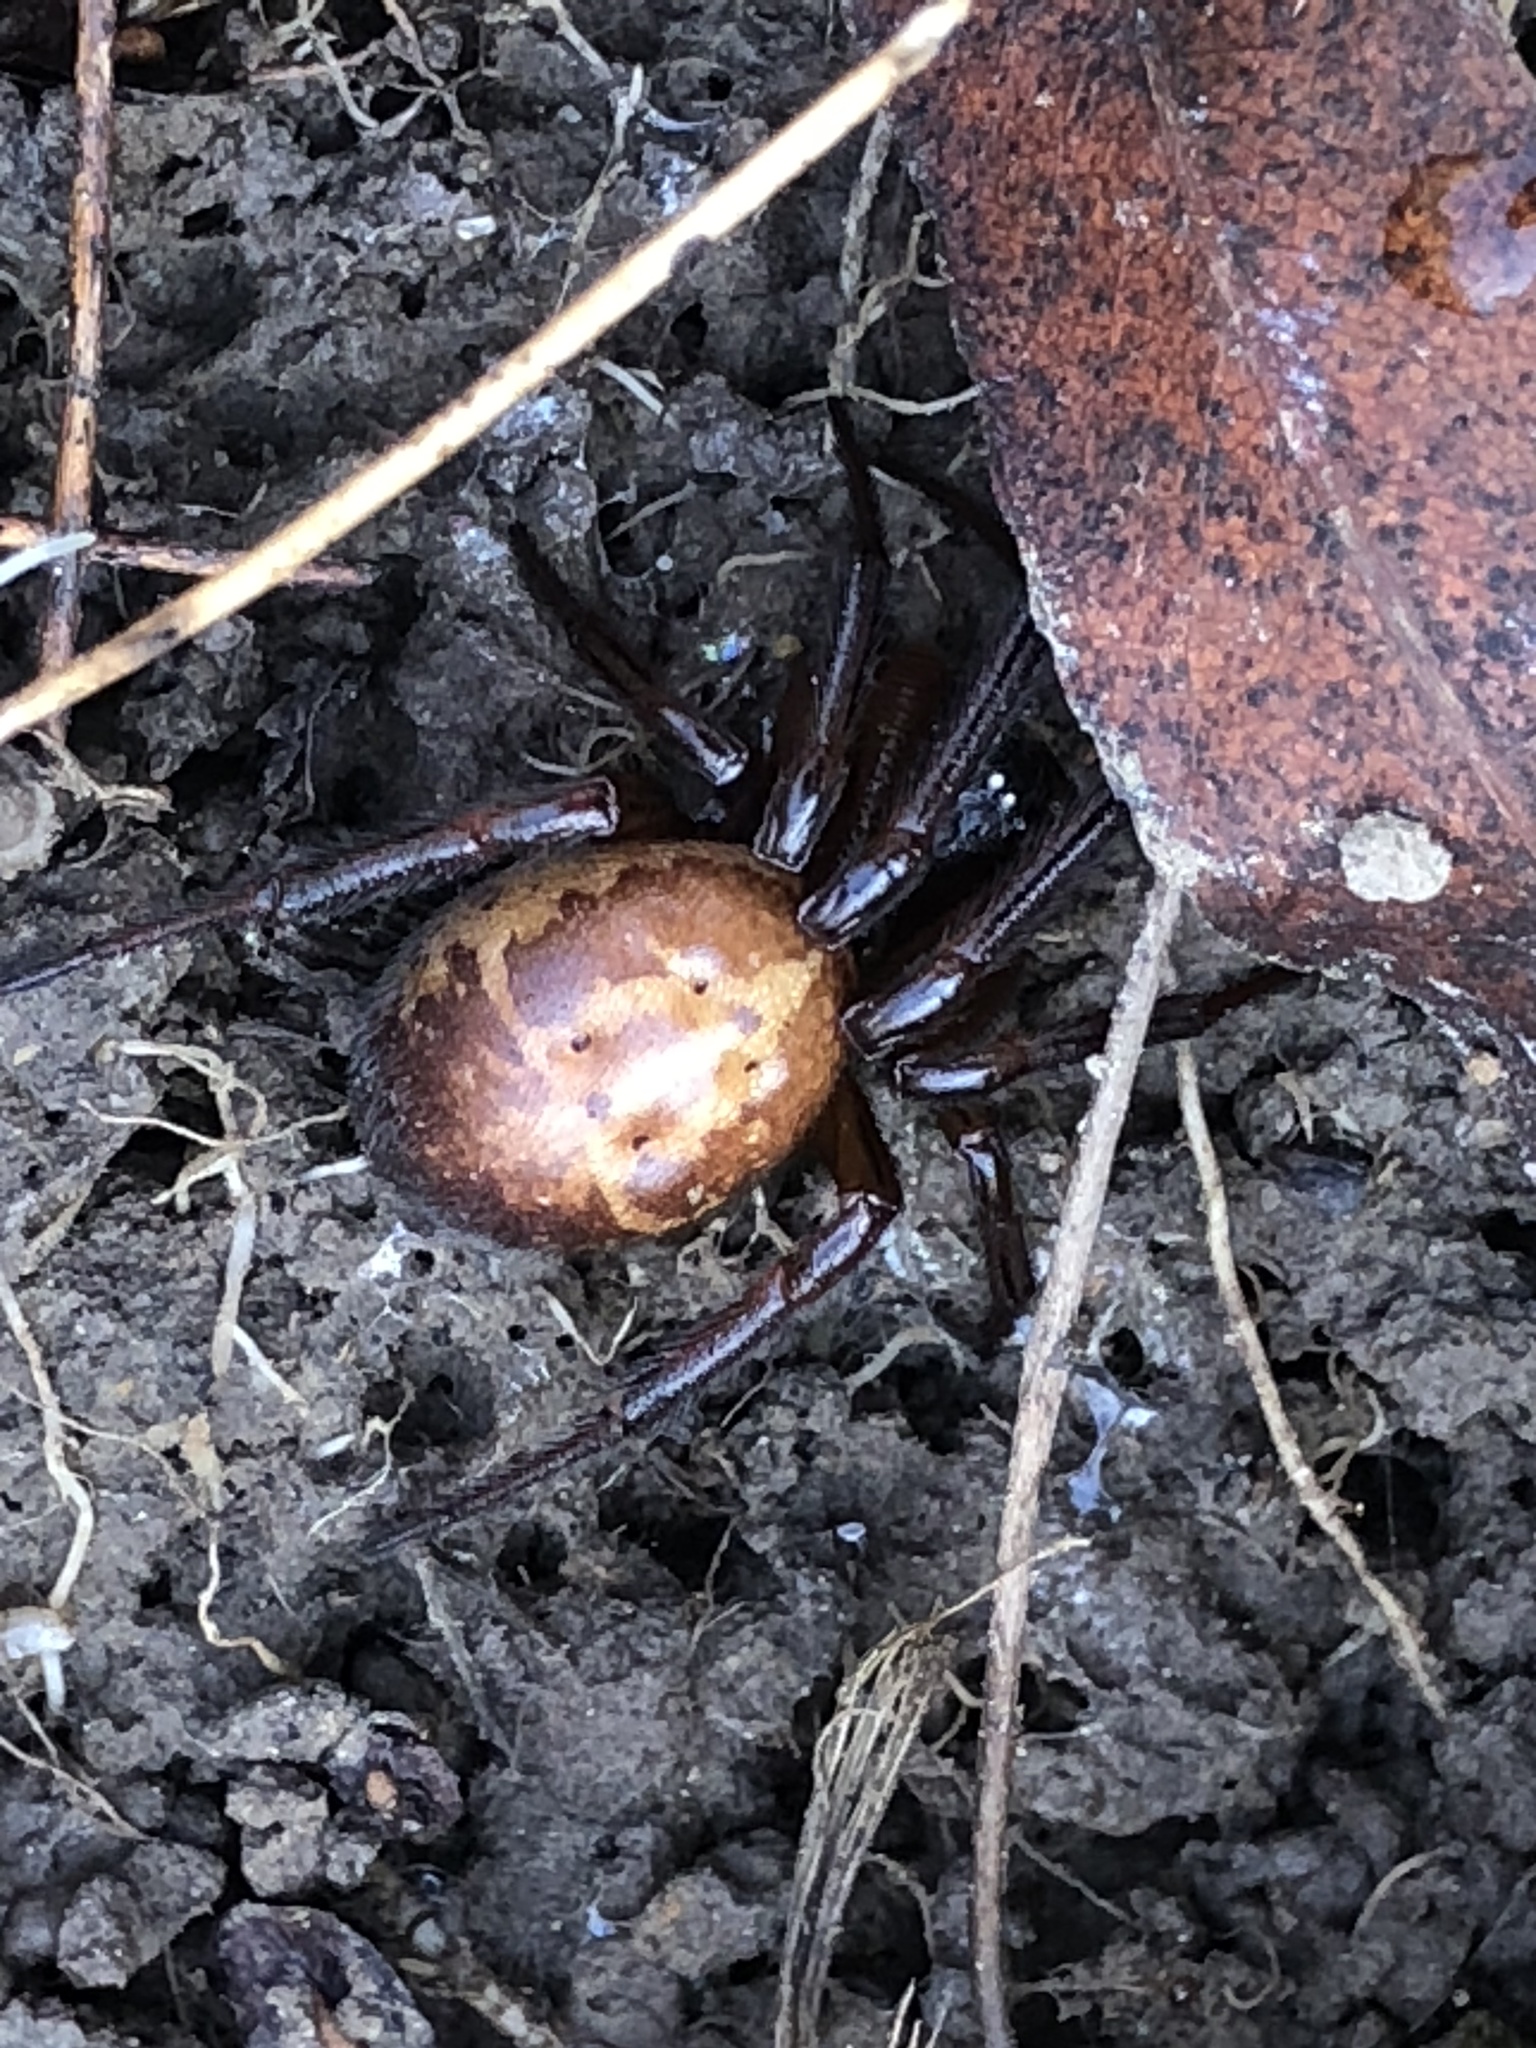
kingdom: Animalia
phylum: Arthropoda
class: Arachnida
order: Araneae
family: Theridiidae
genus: Steatoda
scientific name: Steatoda nobilis
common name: Cobweb weaver
